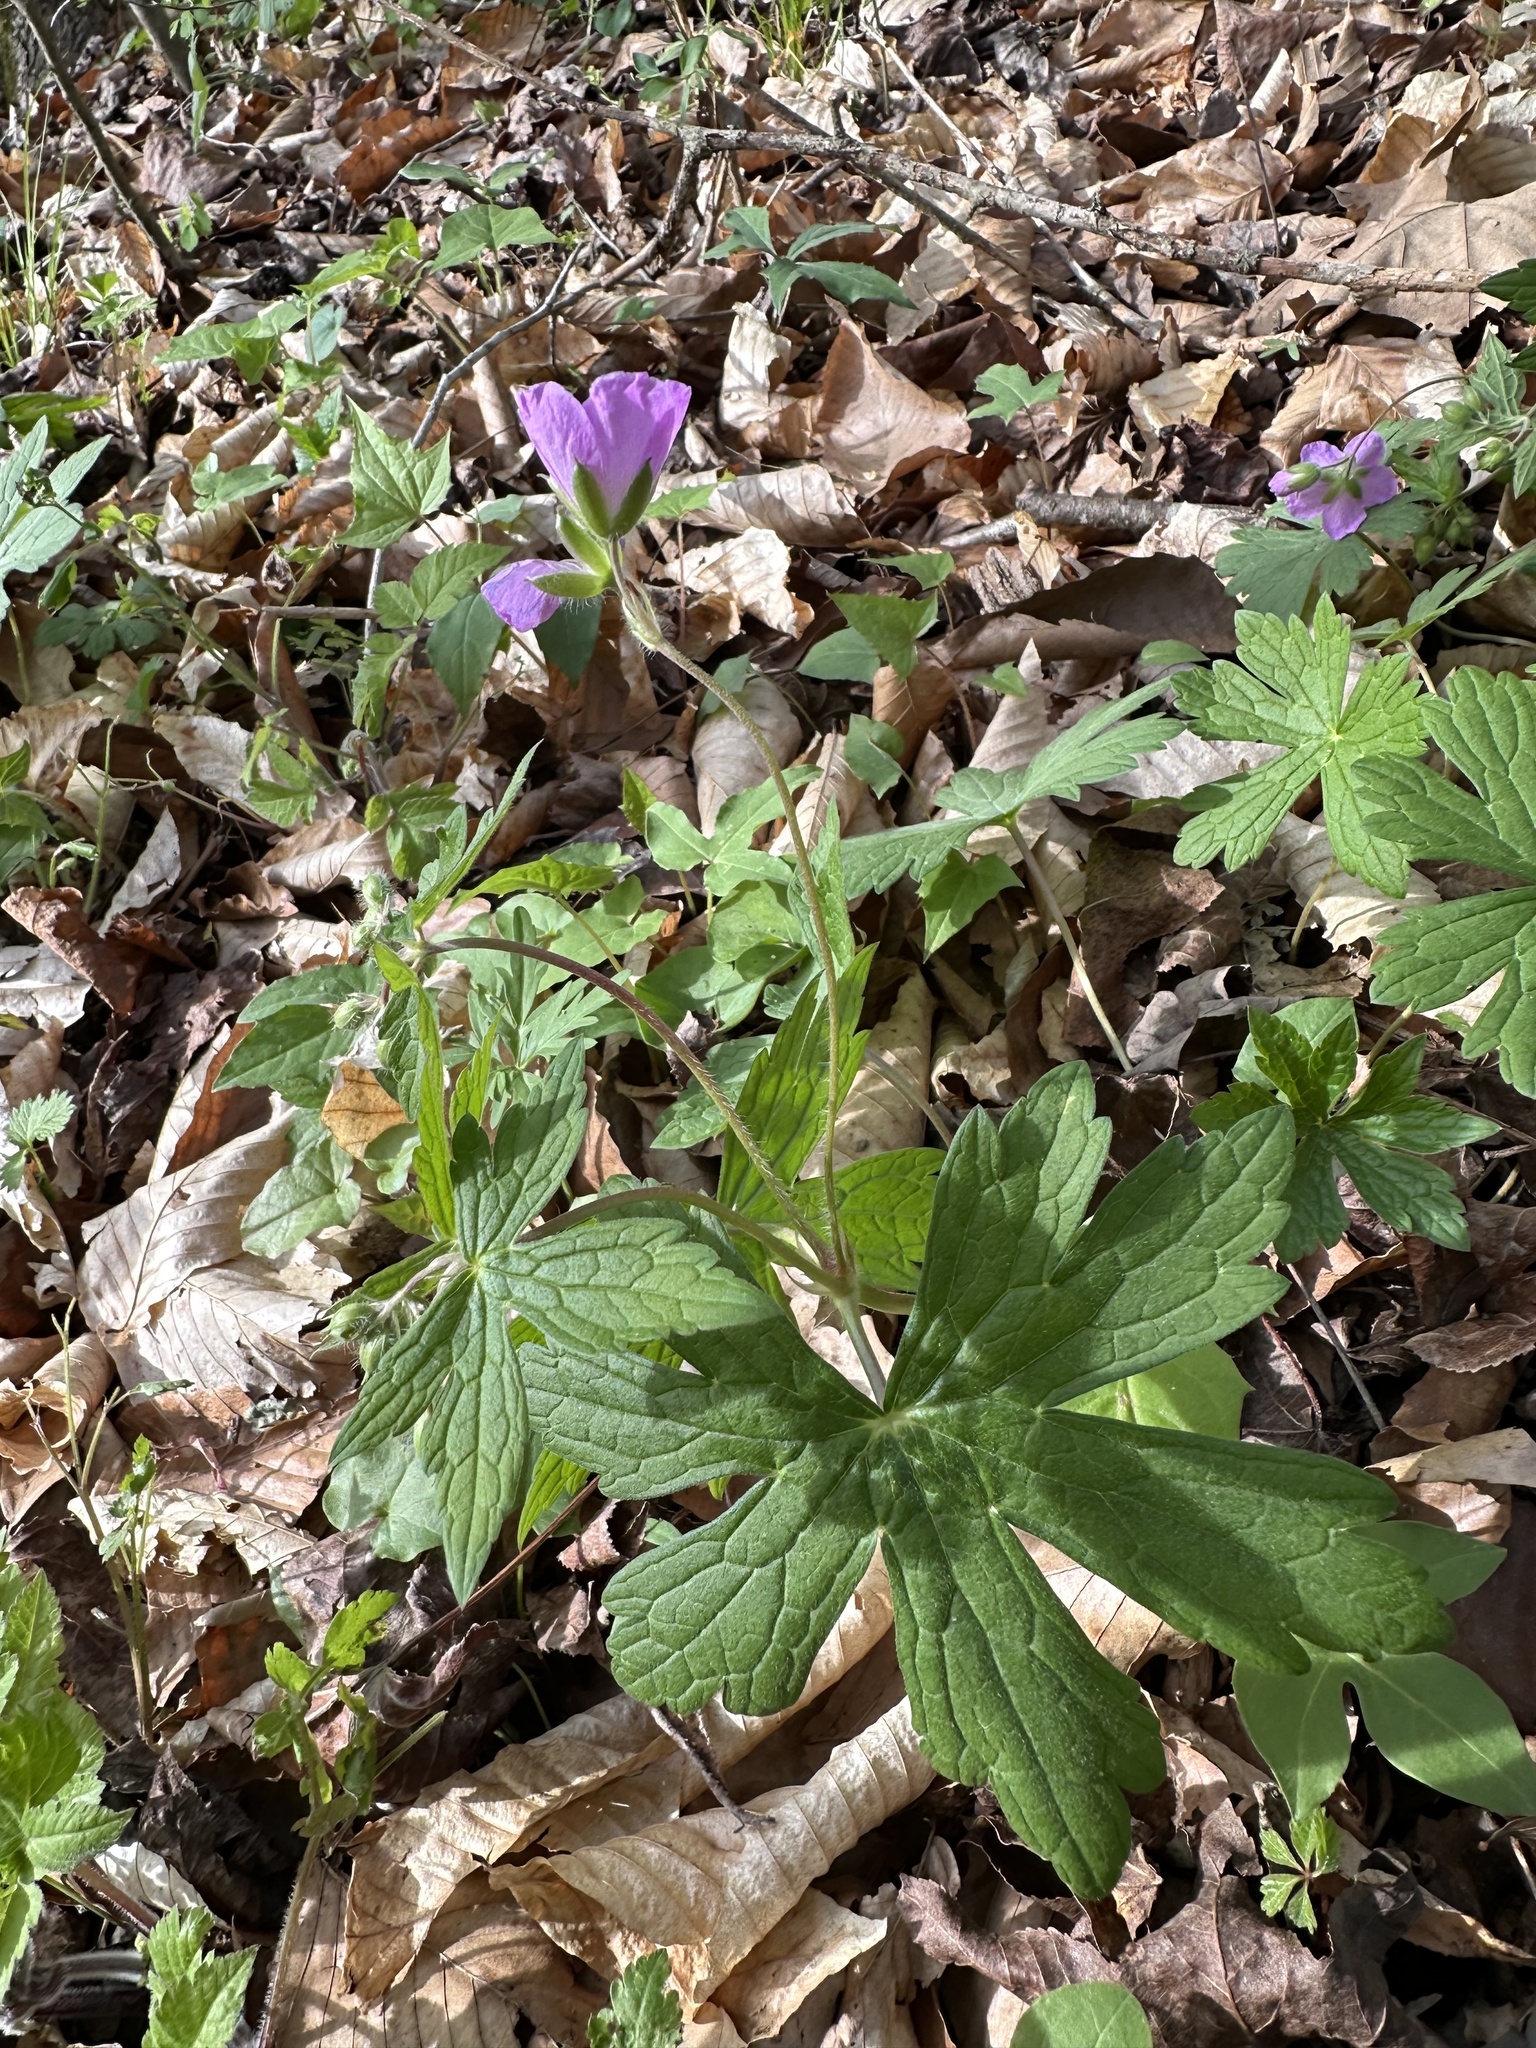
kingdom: Plantae
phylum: Tracheophyta
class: Magnoliopsida
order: Geraniales
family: Geraniaceae
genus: Geranium
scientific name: Geranium maculatum
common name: Spotted geranium
